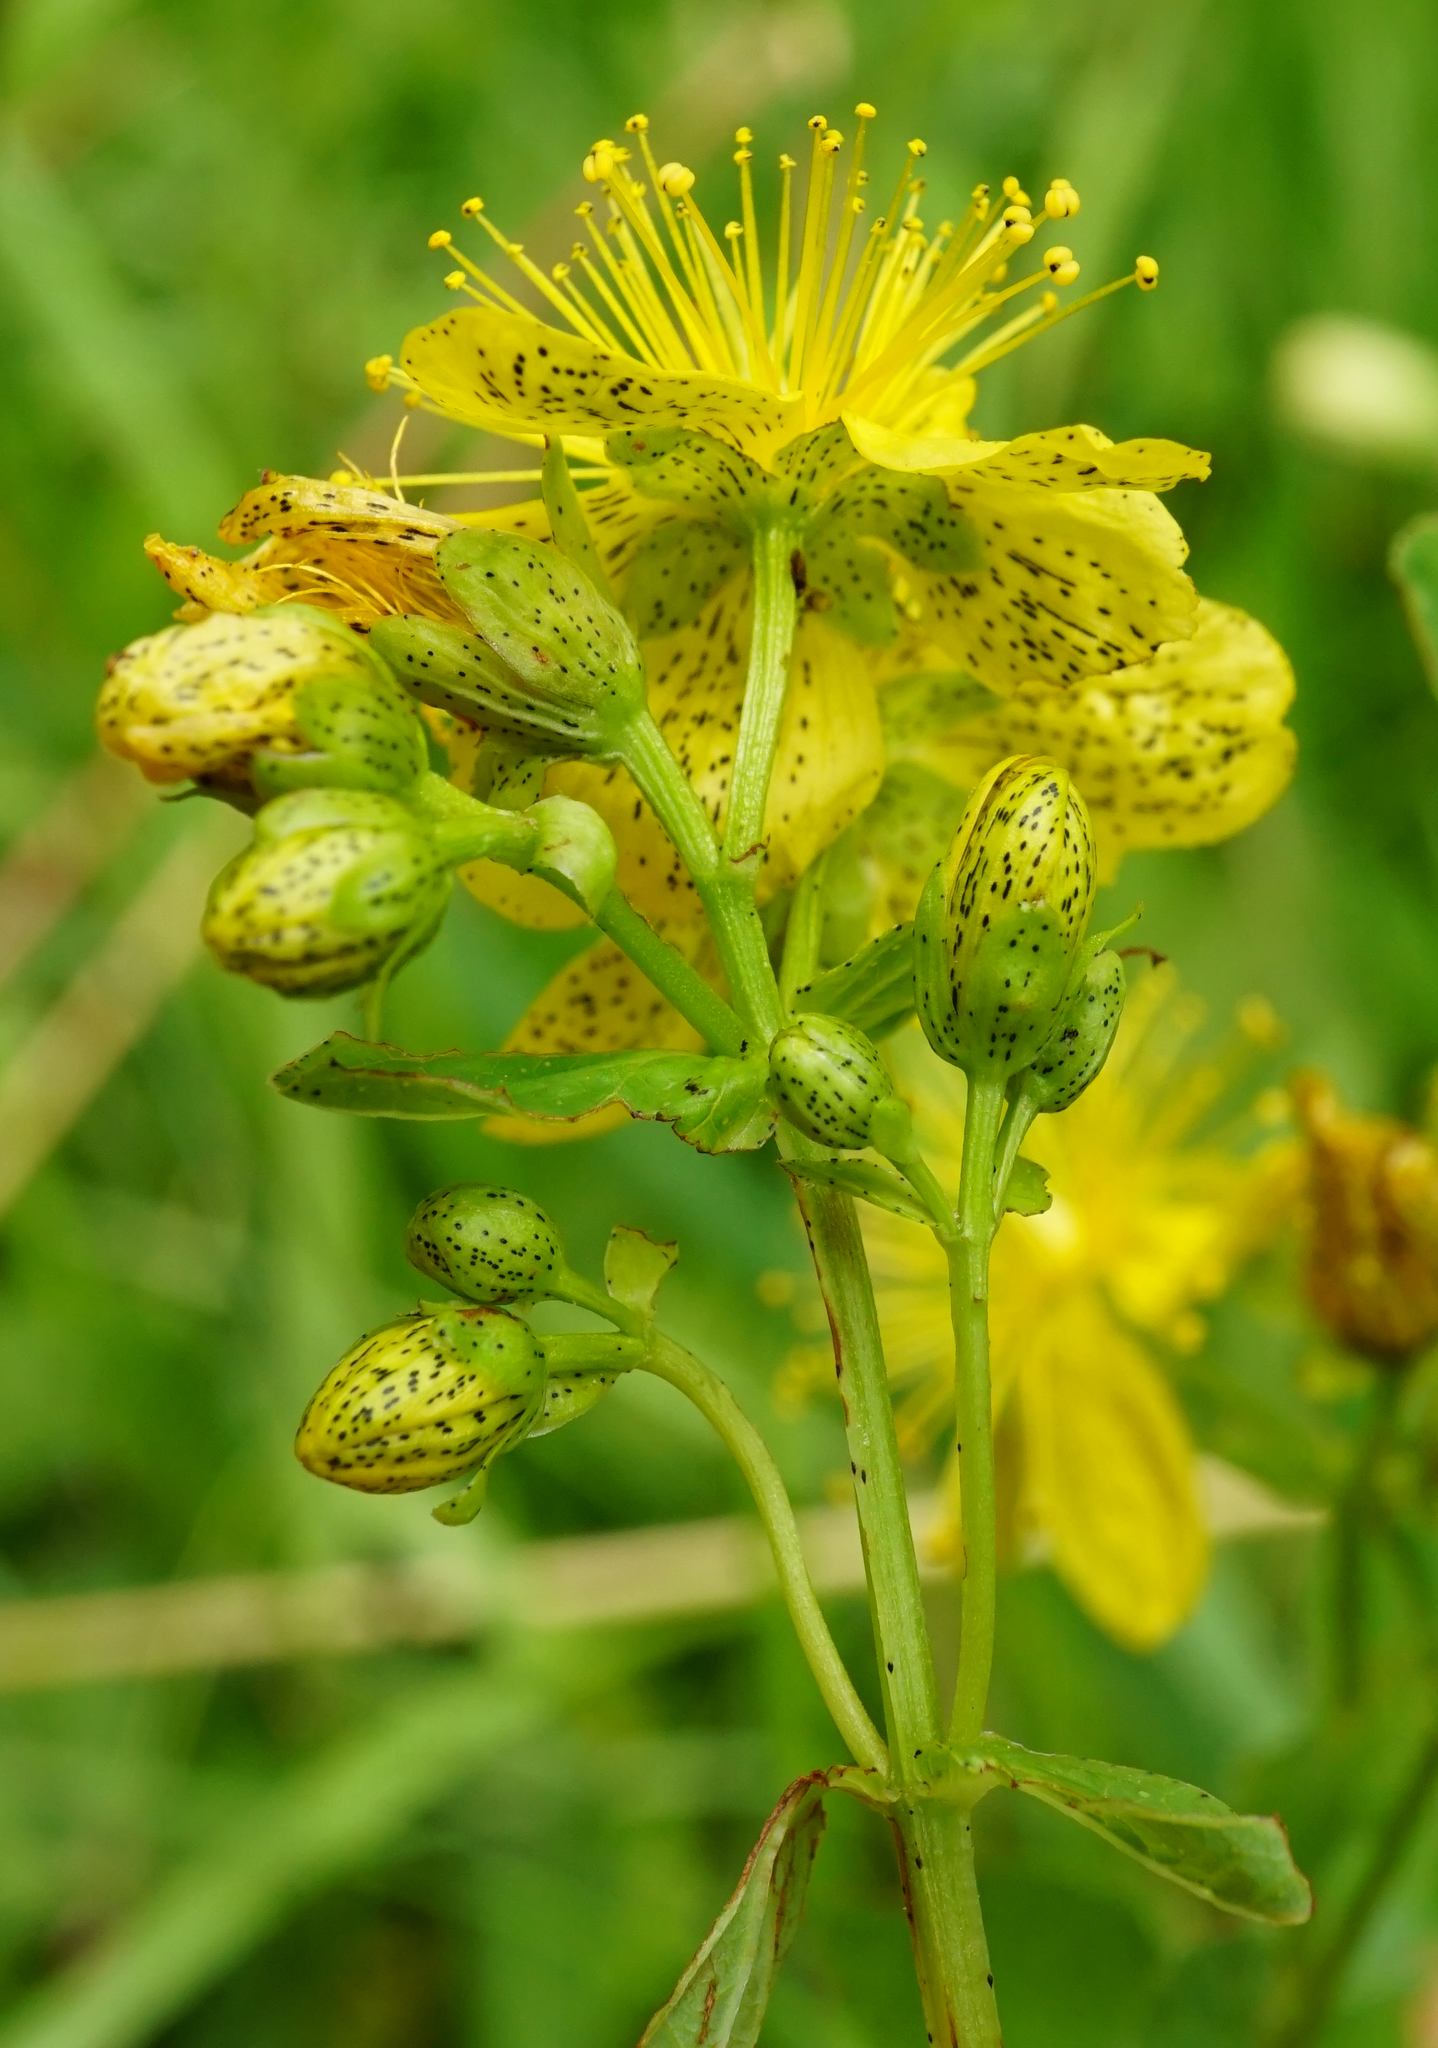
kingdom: Plantae
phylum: Tracheophyta
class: Magnoliopsida
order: Malpighiales
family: Hypericaceae
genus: Hypericum
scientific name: Hypericum maculatum
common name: Imperforate st. john's-wort
